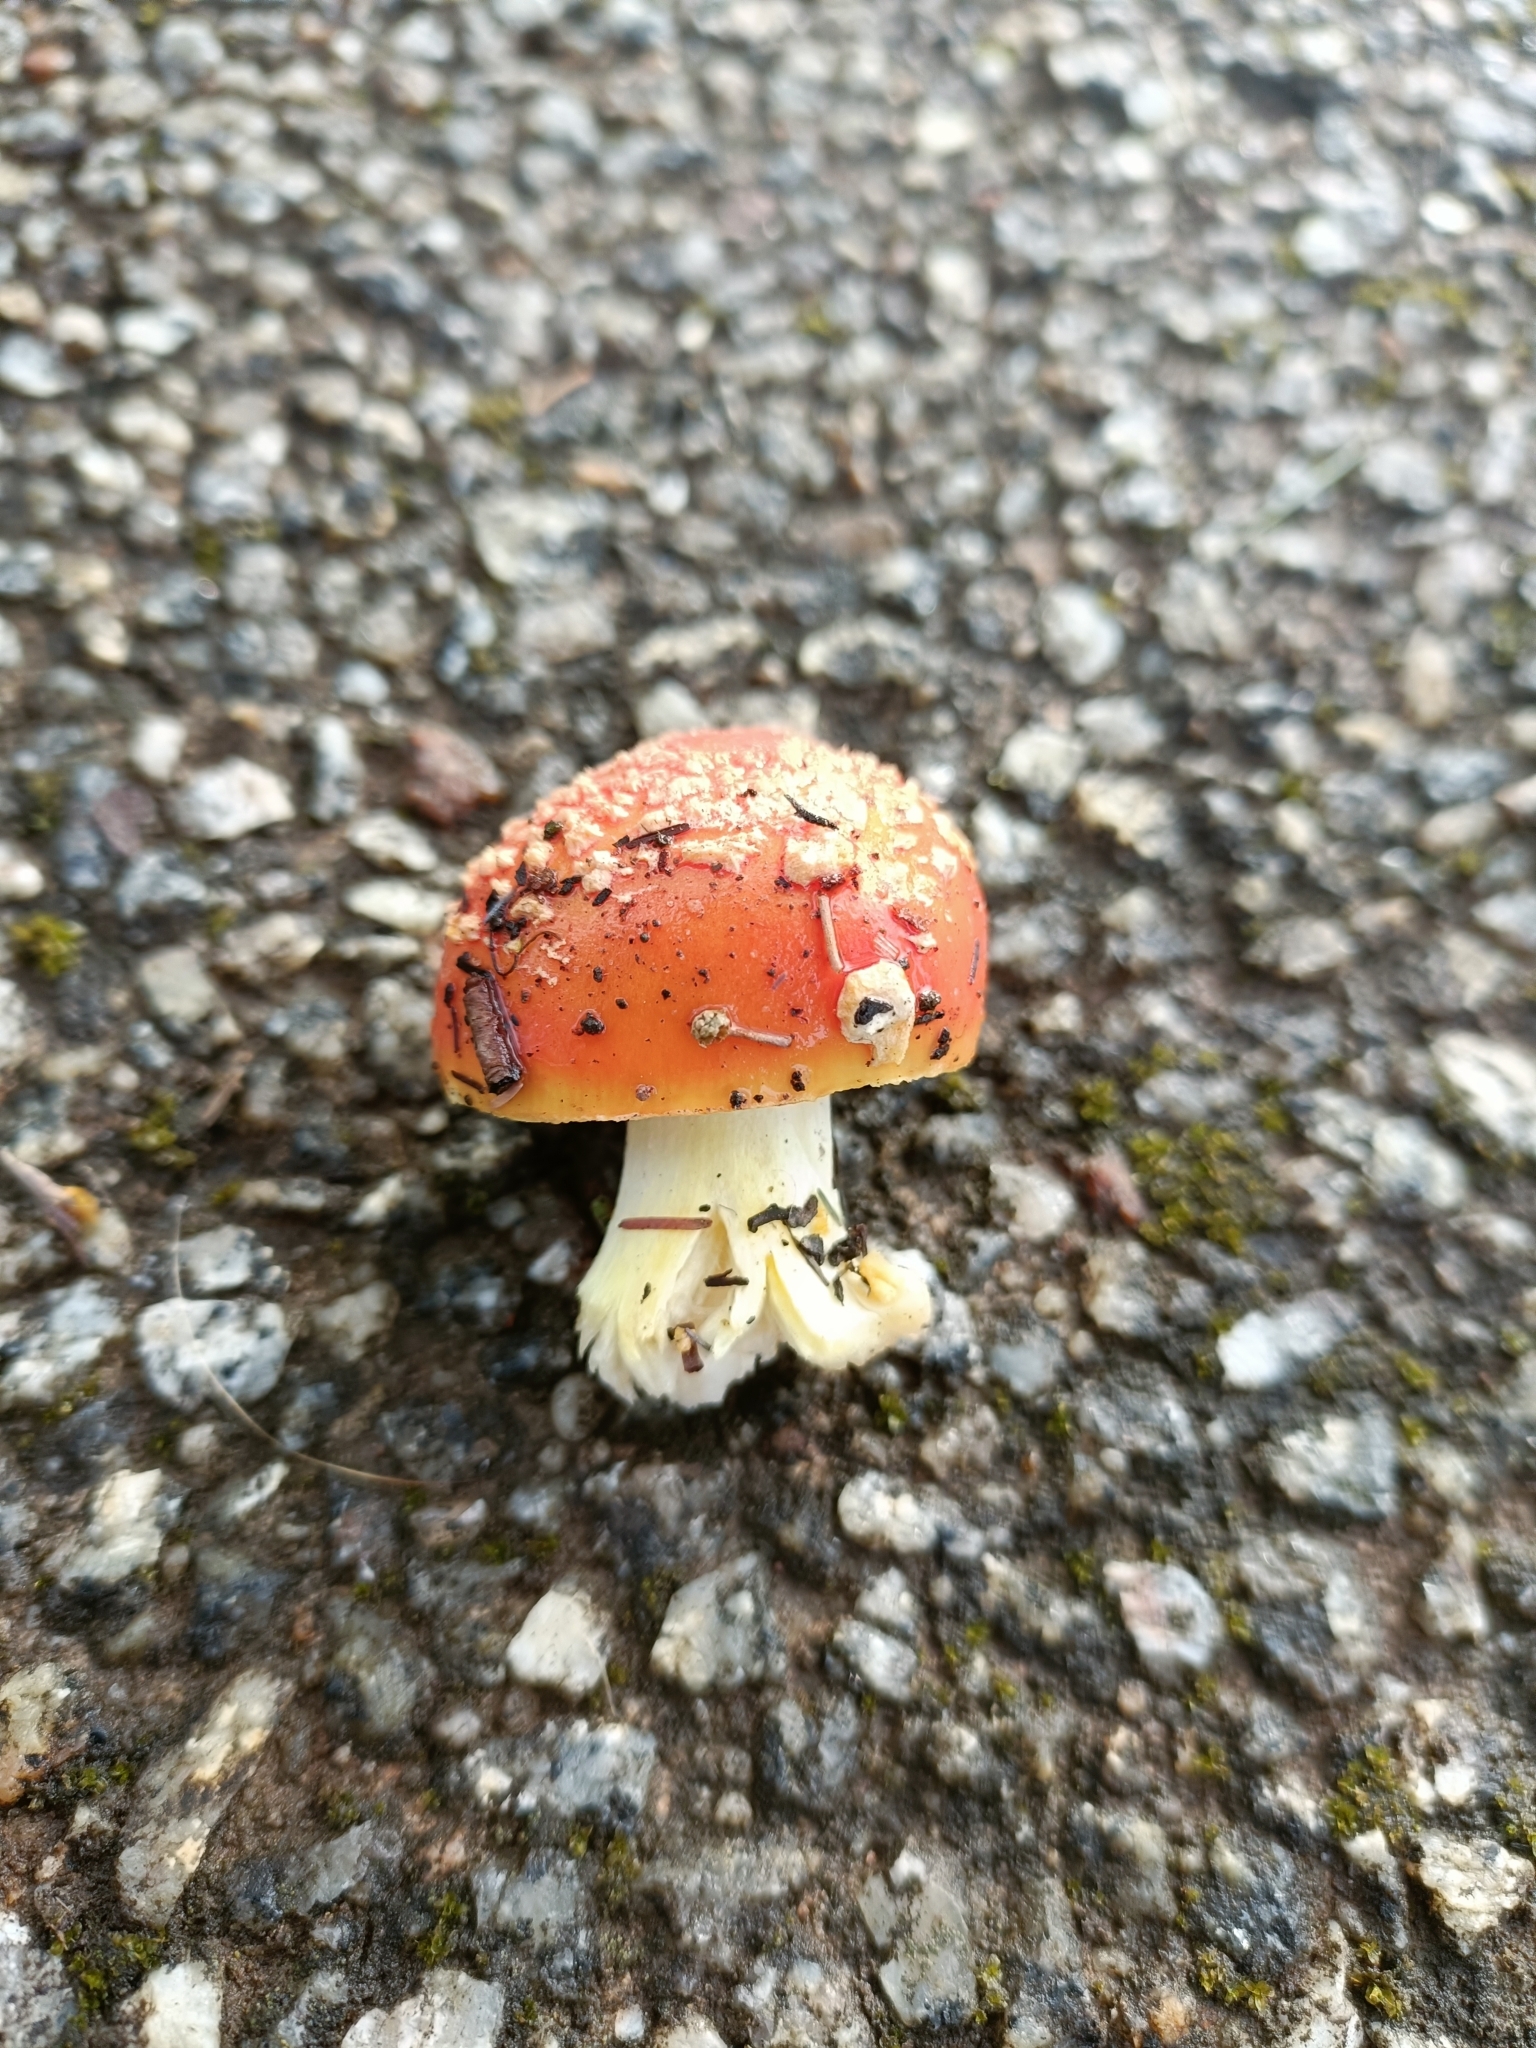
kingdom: Fungi
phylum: Basidiomycota
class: Agaricomycetes
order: Agaricales
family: Amanitaceae
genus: Amanita
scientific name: Amanita xanthocephala
